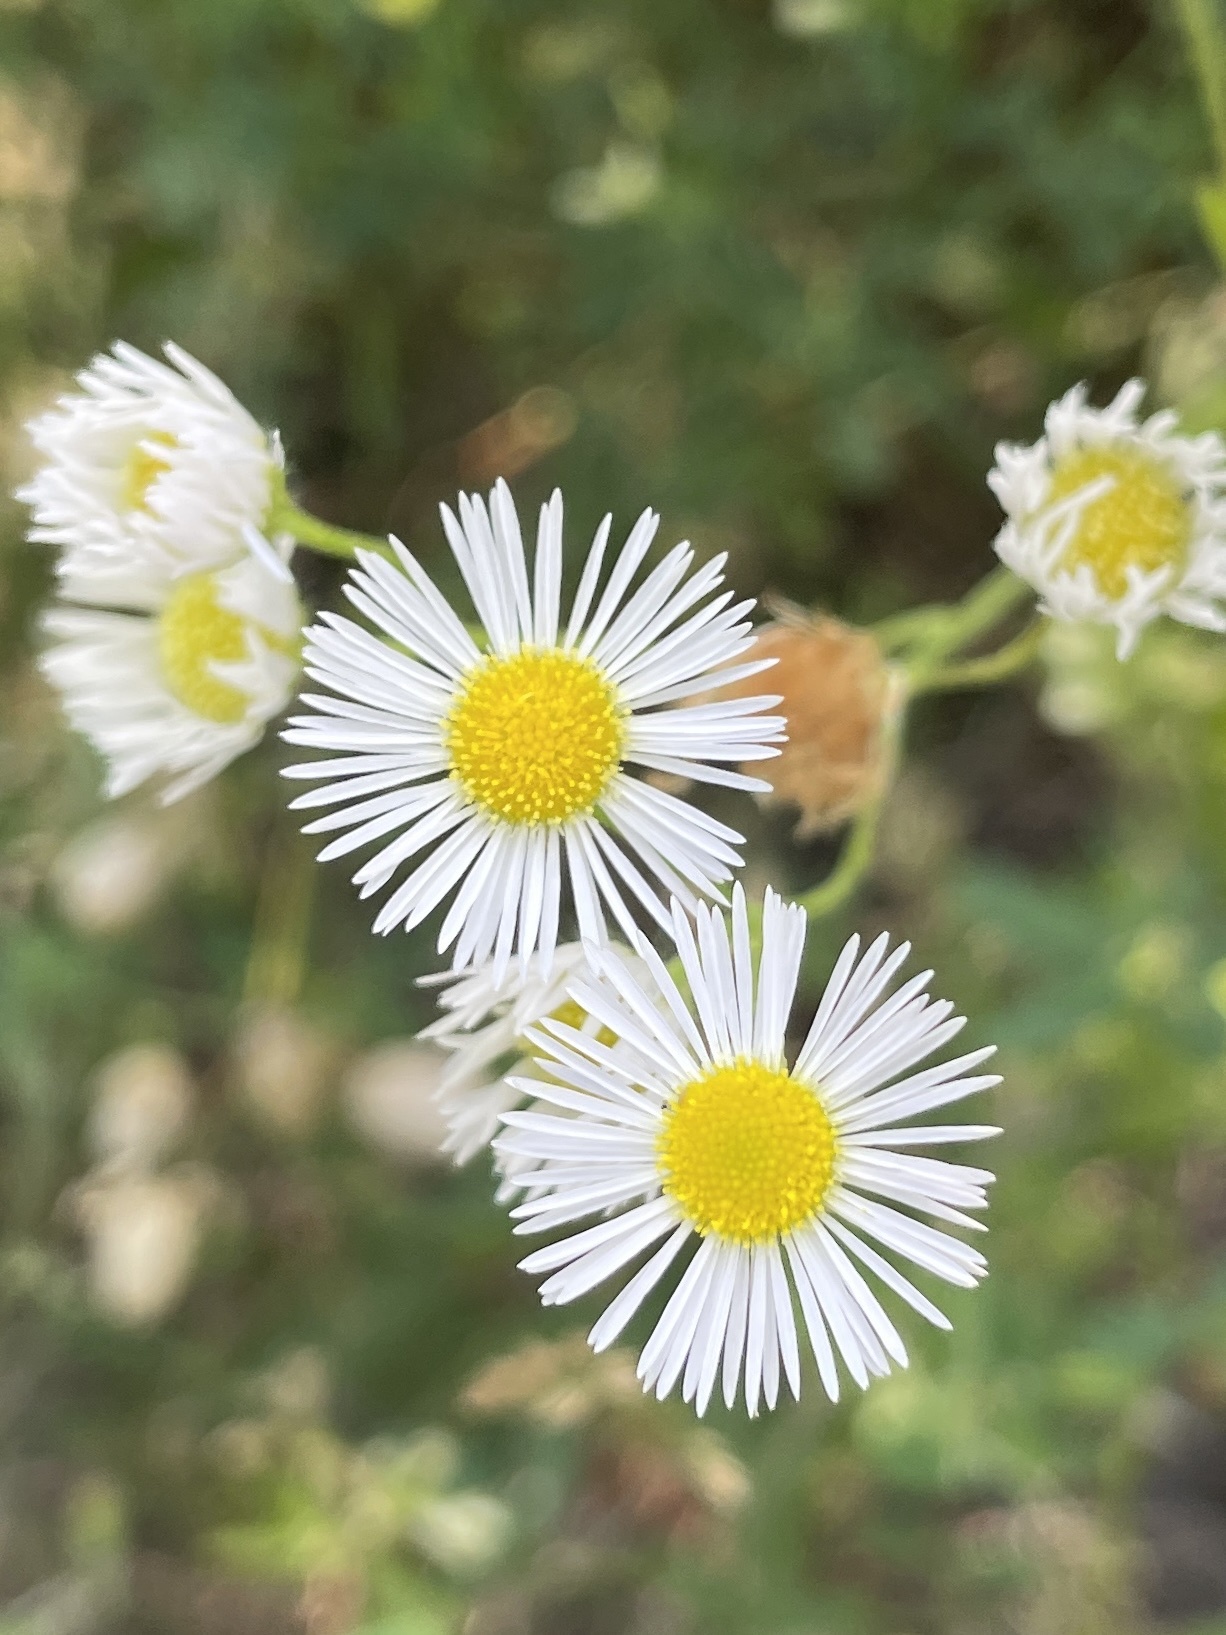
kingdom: Plantae
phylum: Tracheophyta
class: Magnoliopsida
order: Asterales
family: Asteraceae
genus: Erigeron
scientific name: Erigeron strigosus
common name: Common eastern fleabane
